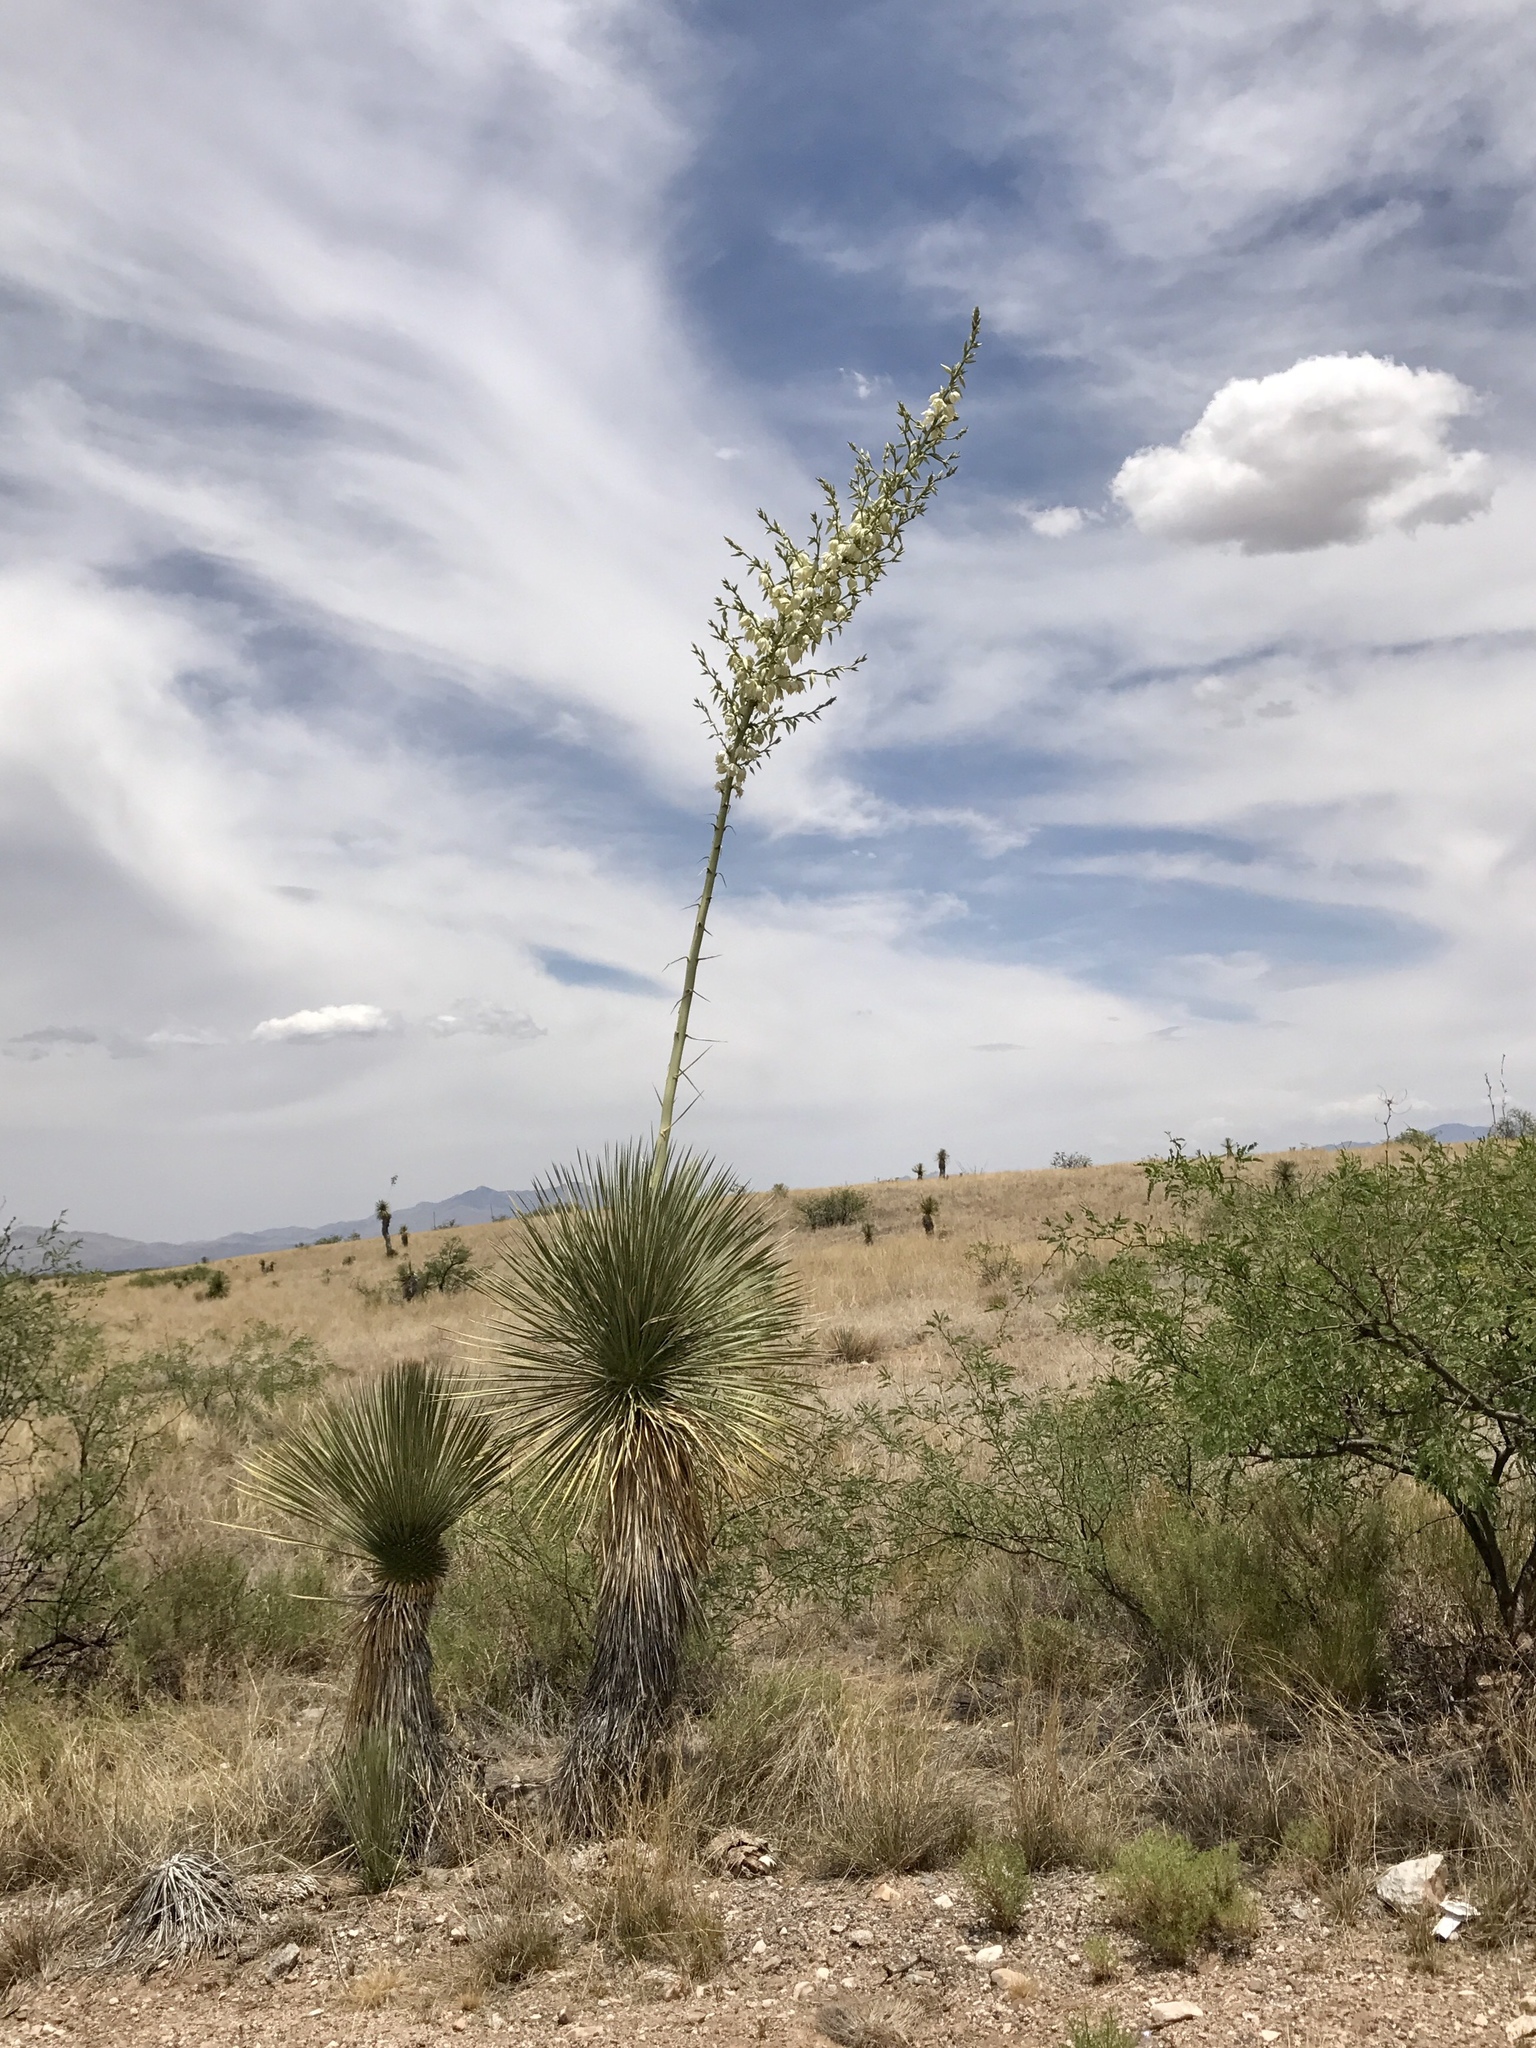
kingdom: Plantae
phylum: Tracheophyta
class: Liliopsida
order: Asparagales
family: Asparagaceae
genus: Yucca
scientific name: Yucca elata
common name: Palmella
